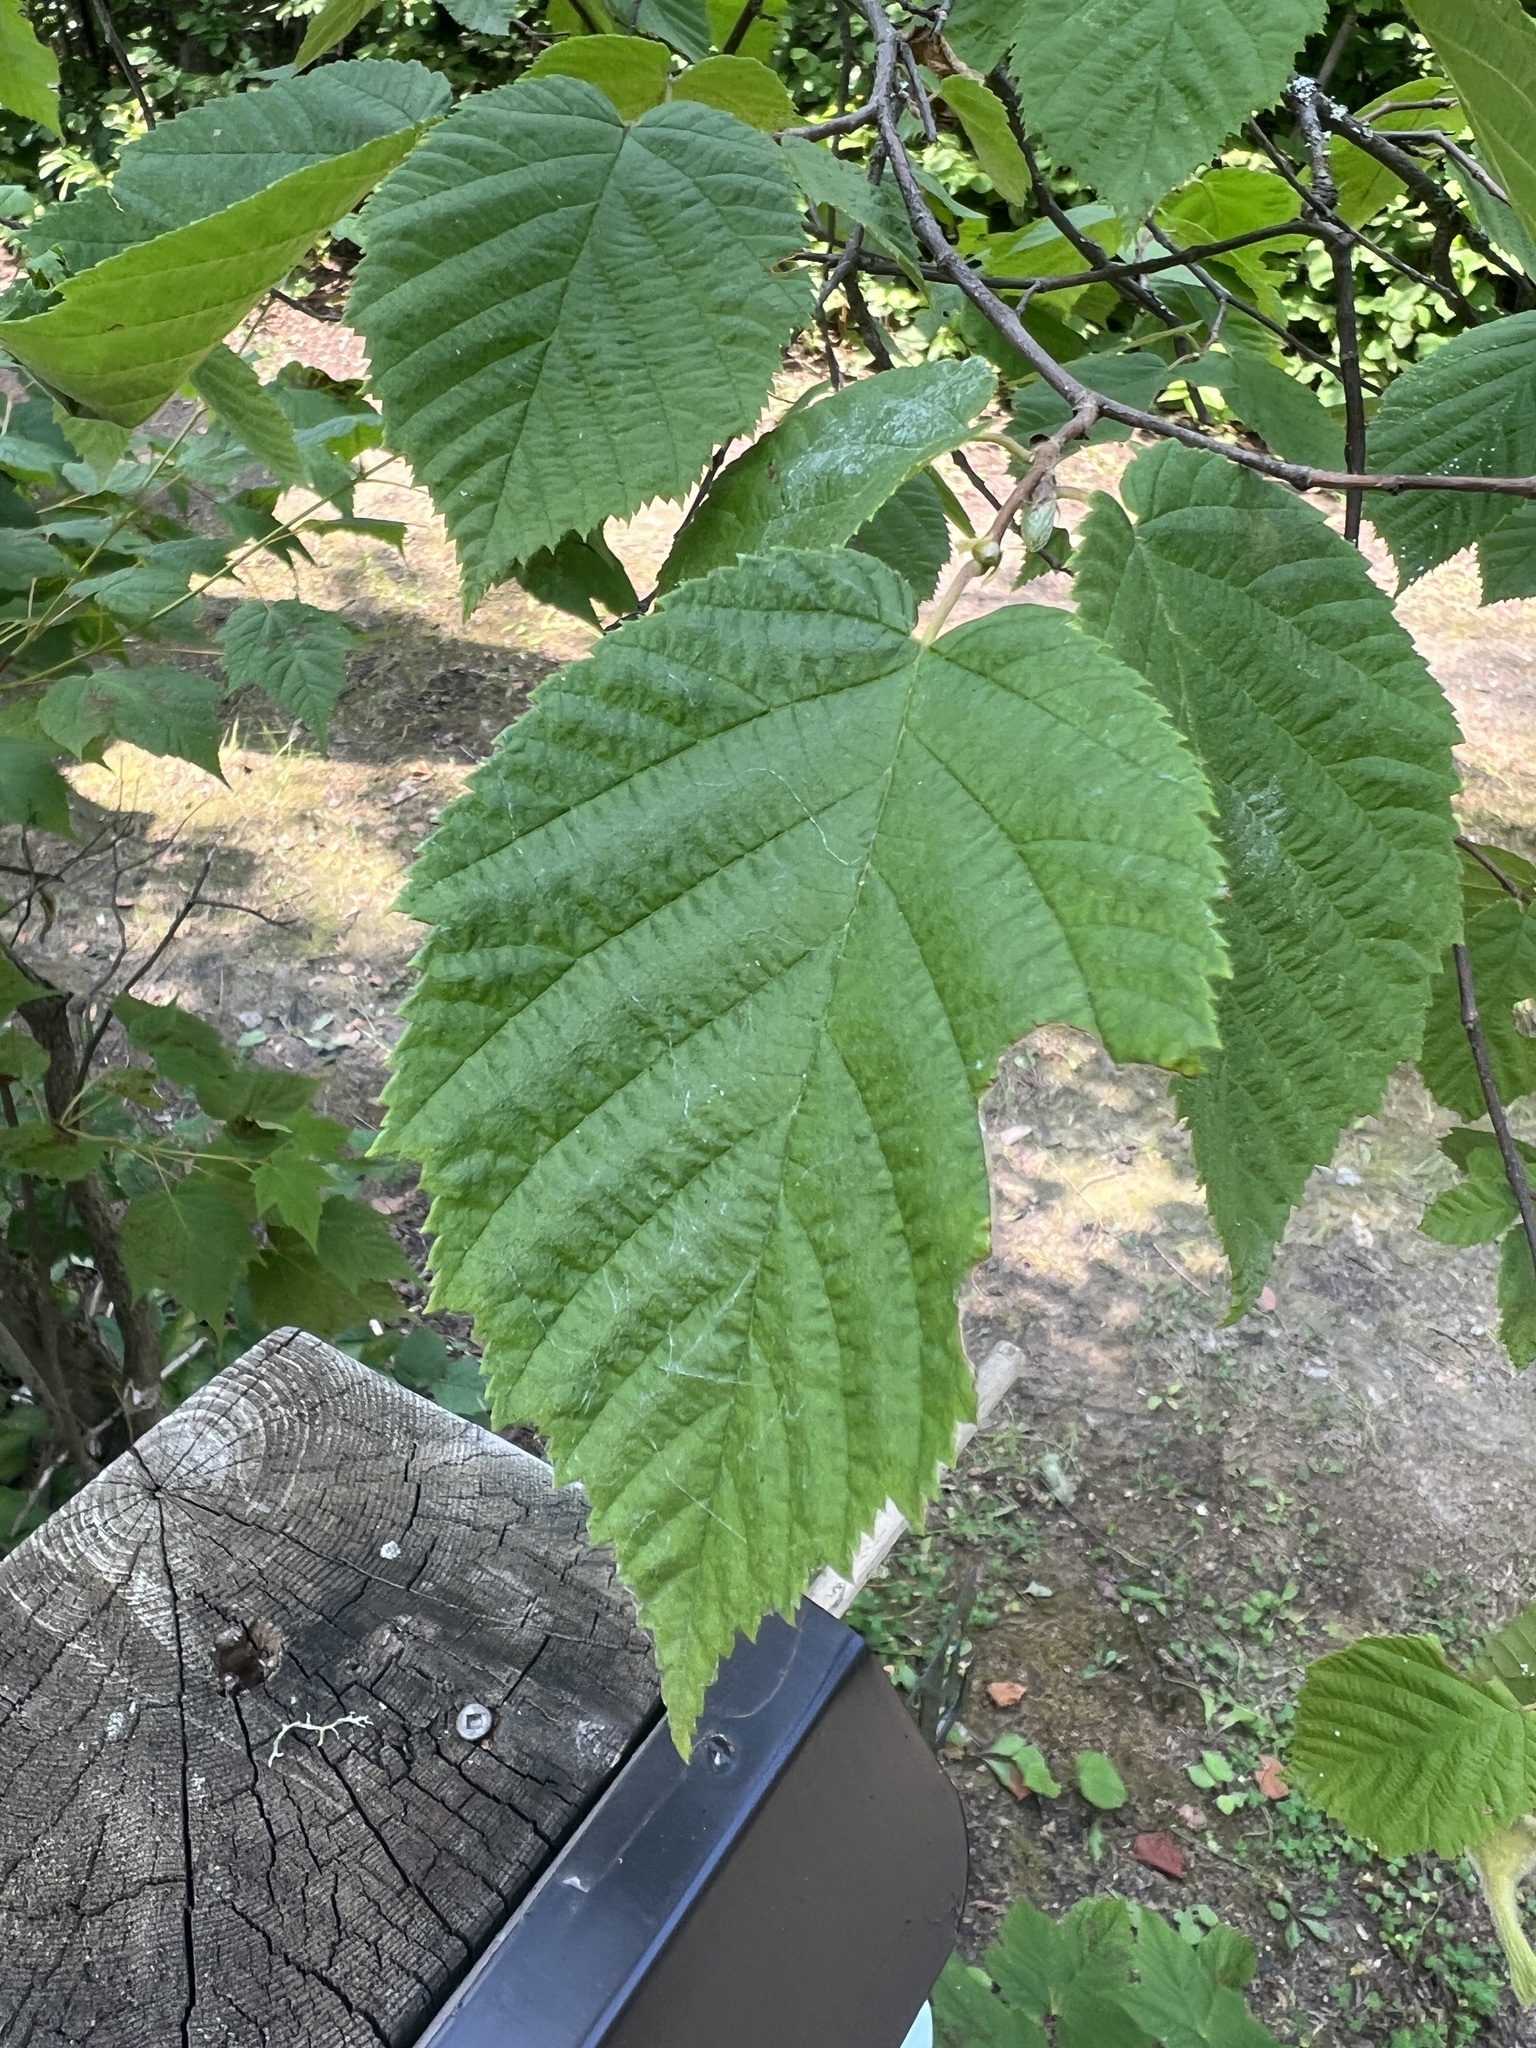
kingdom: Plantae
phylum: Tracheophyta
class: Magnoliopsida
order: Fagales
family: Betulaceae
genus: Corylus
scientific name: Corylus cornuta
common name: Beaked hazel
